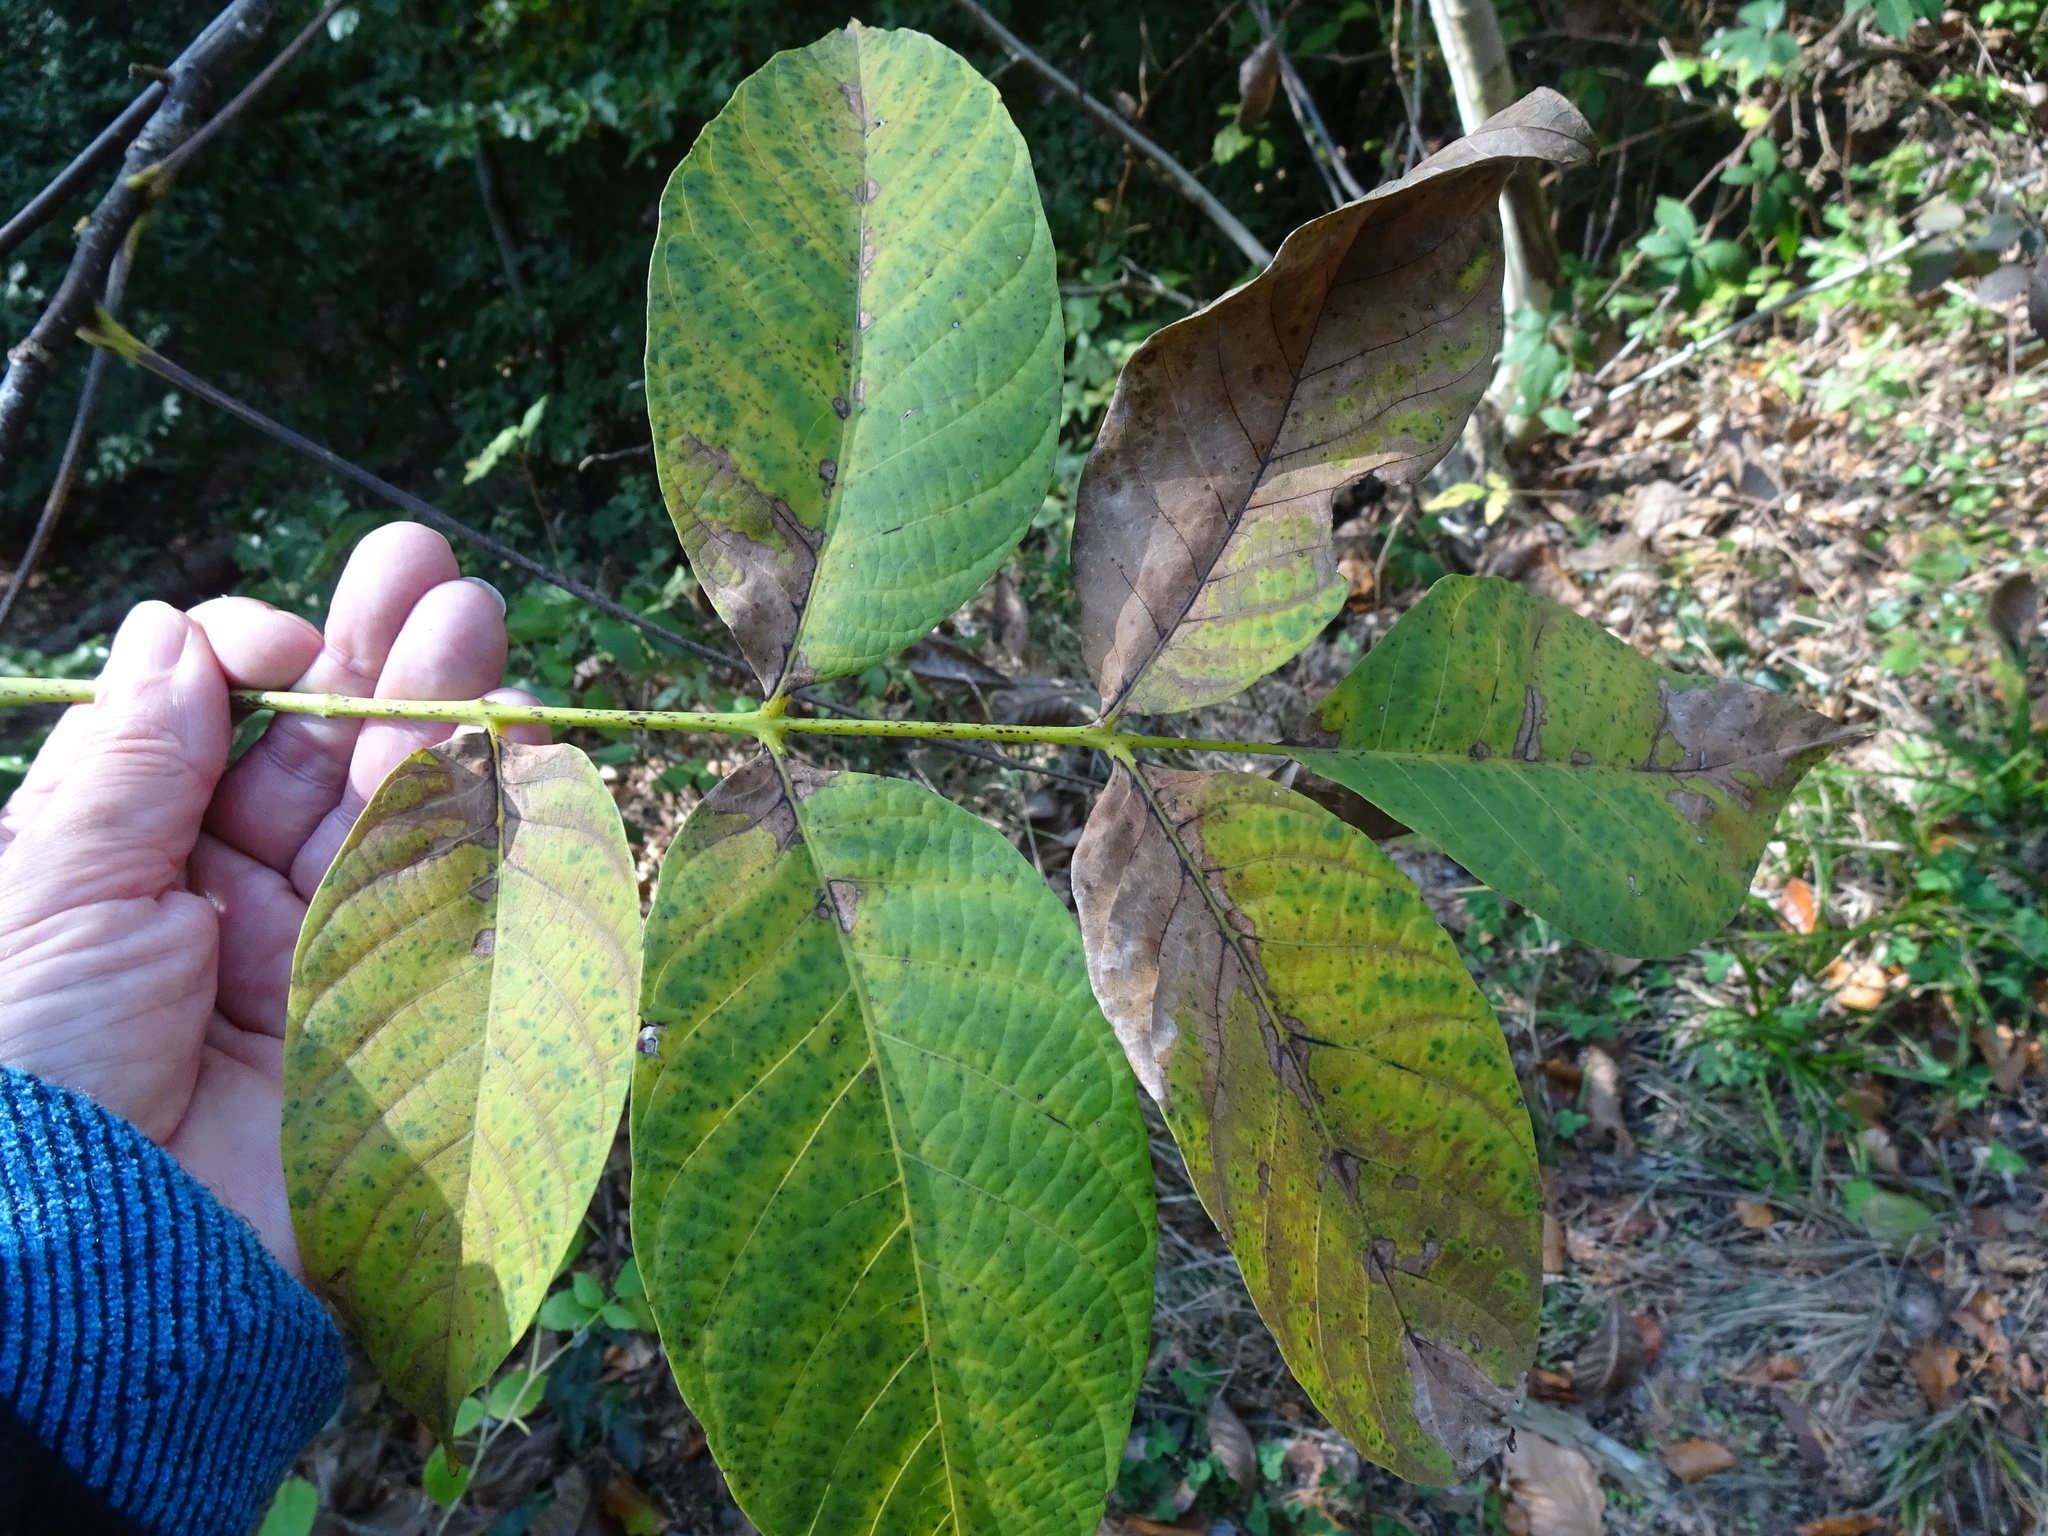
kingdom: Plantae
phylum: Tracheophyta
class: Magnoliopsida
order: Fagales
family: Juglandaceae
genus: Juglans
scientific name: Juglans regia
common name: Walnut
